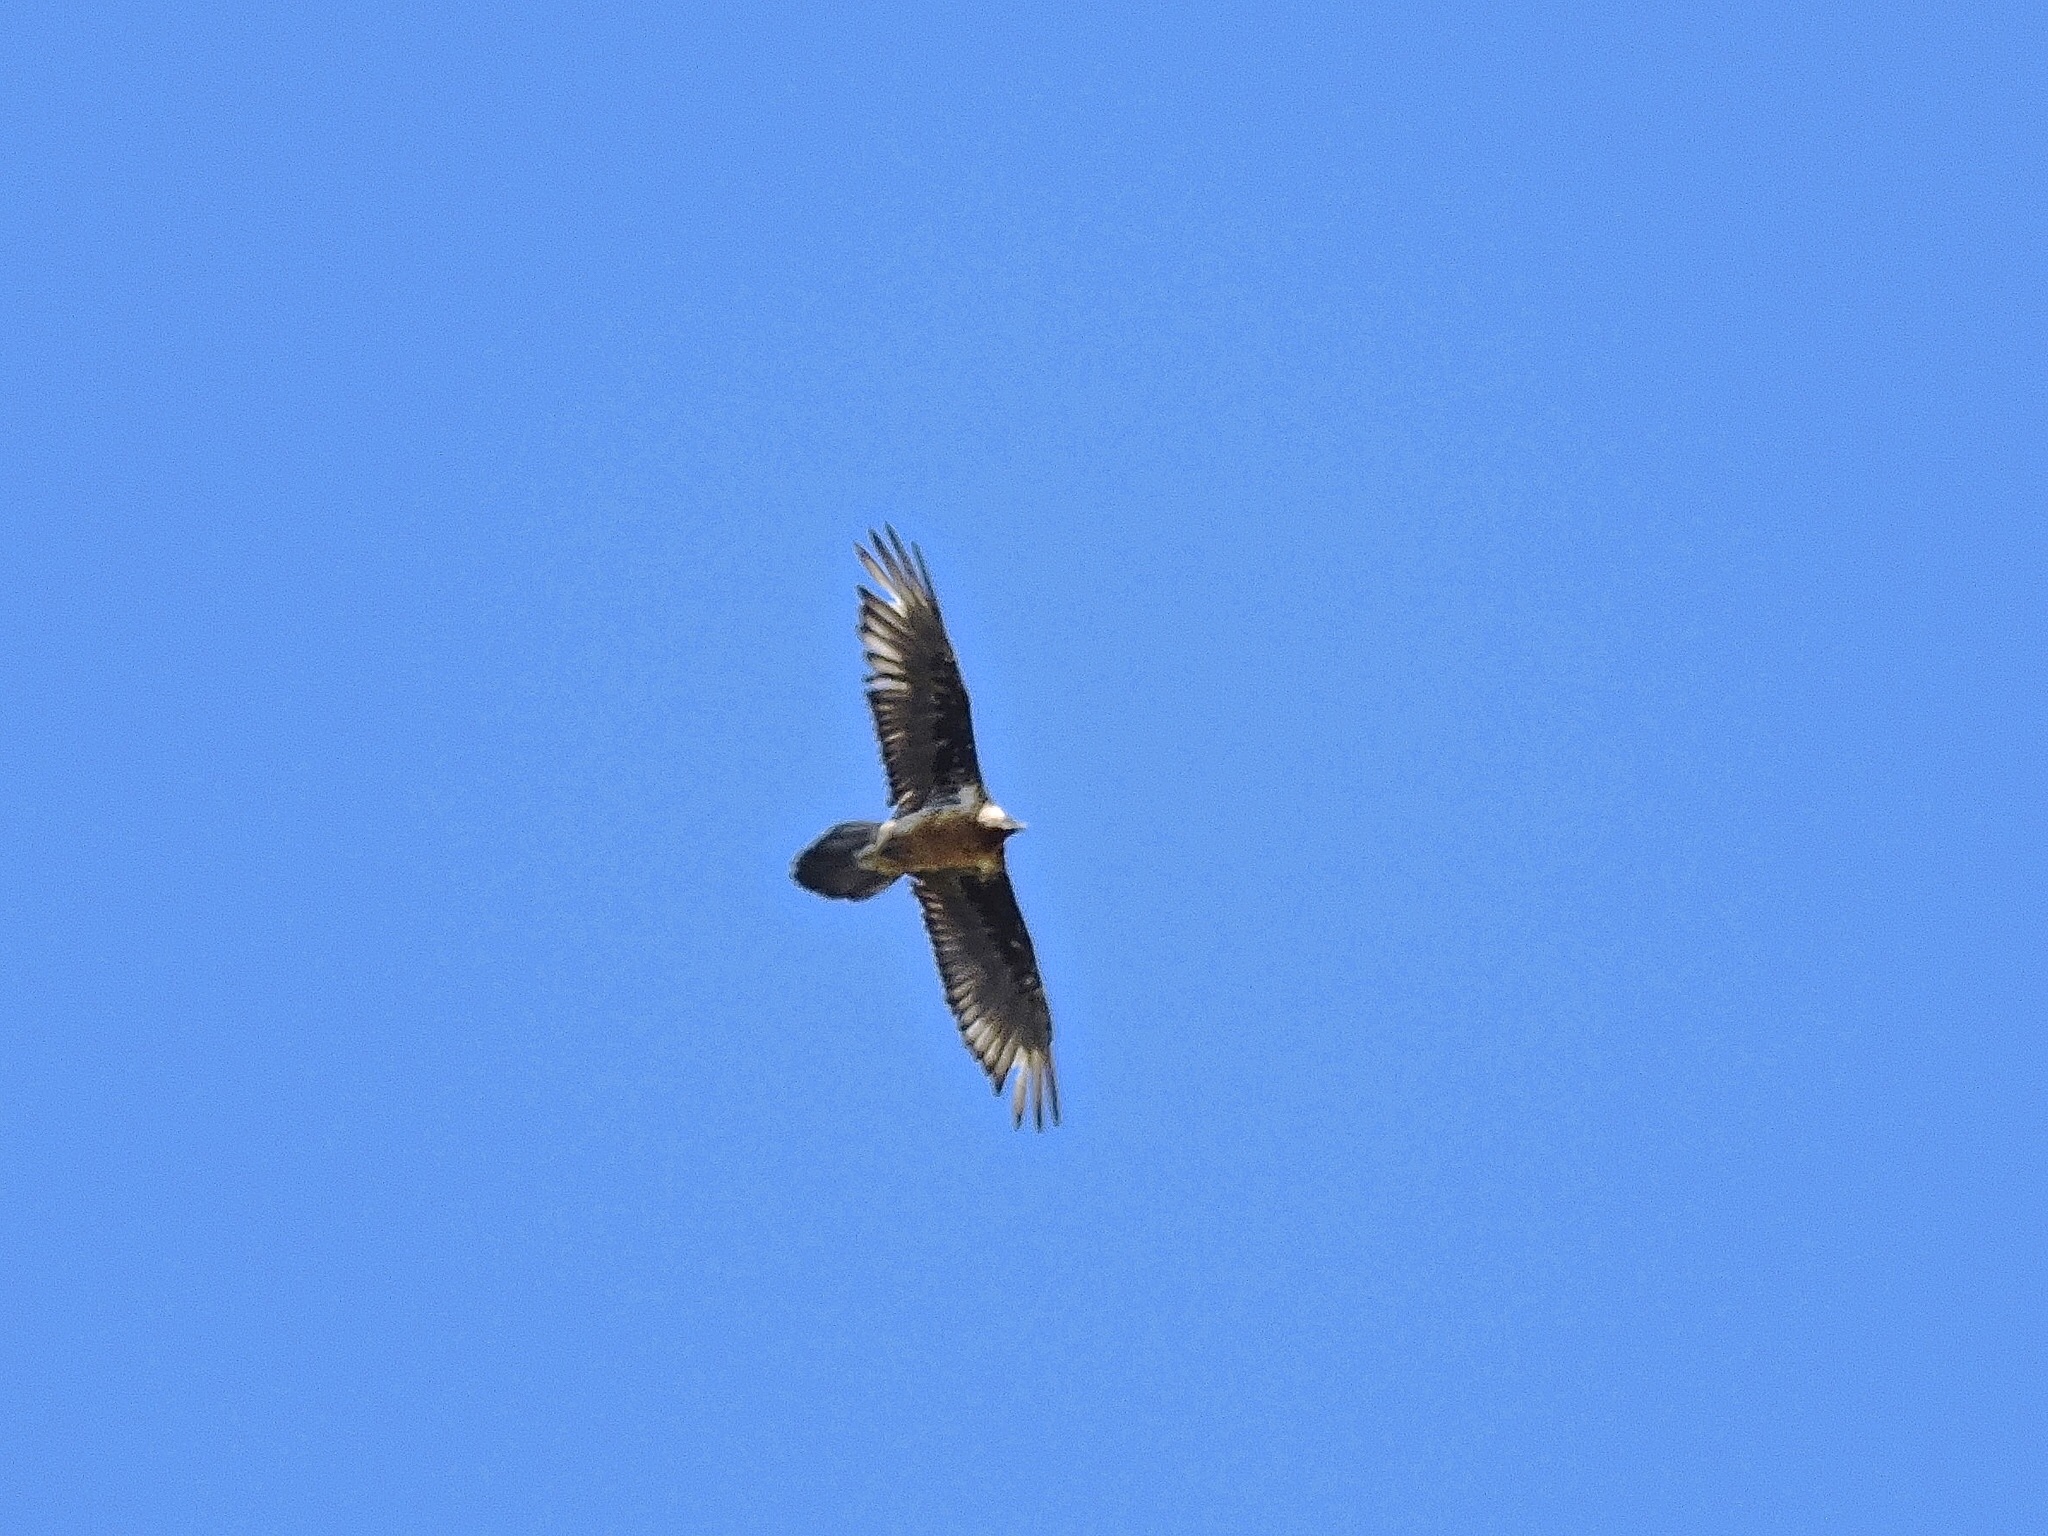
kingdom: Animalia
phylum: Chordata
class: Aves
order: Accipitriformes
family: Accipitridae
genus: Gypaetus
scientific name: Gypaetus barbatus
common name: Bearded vulture
